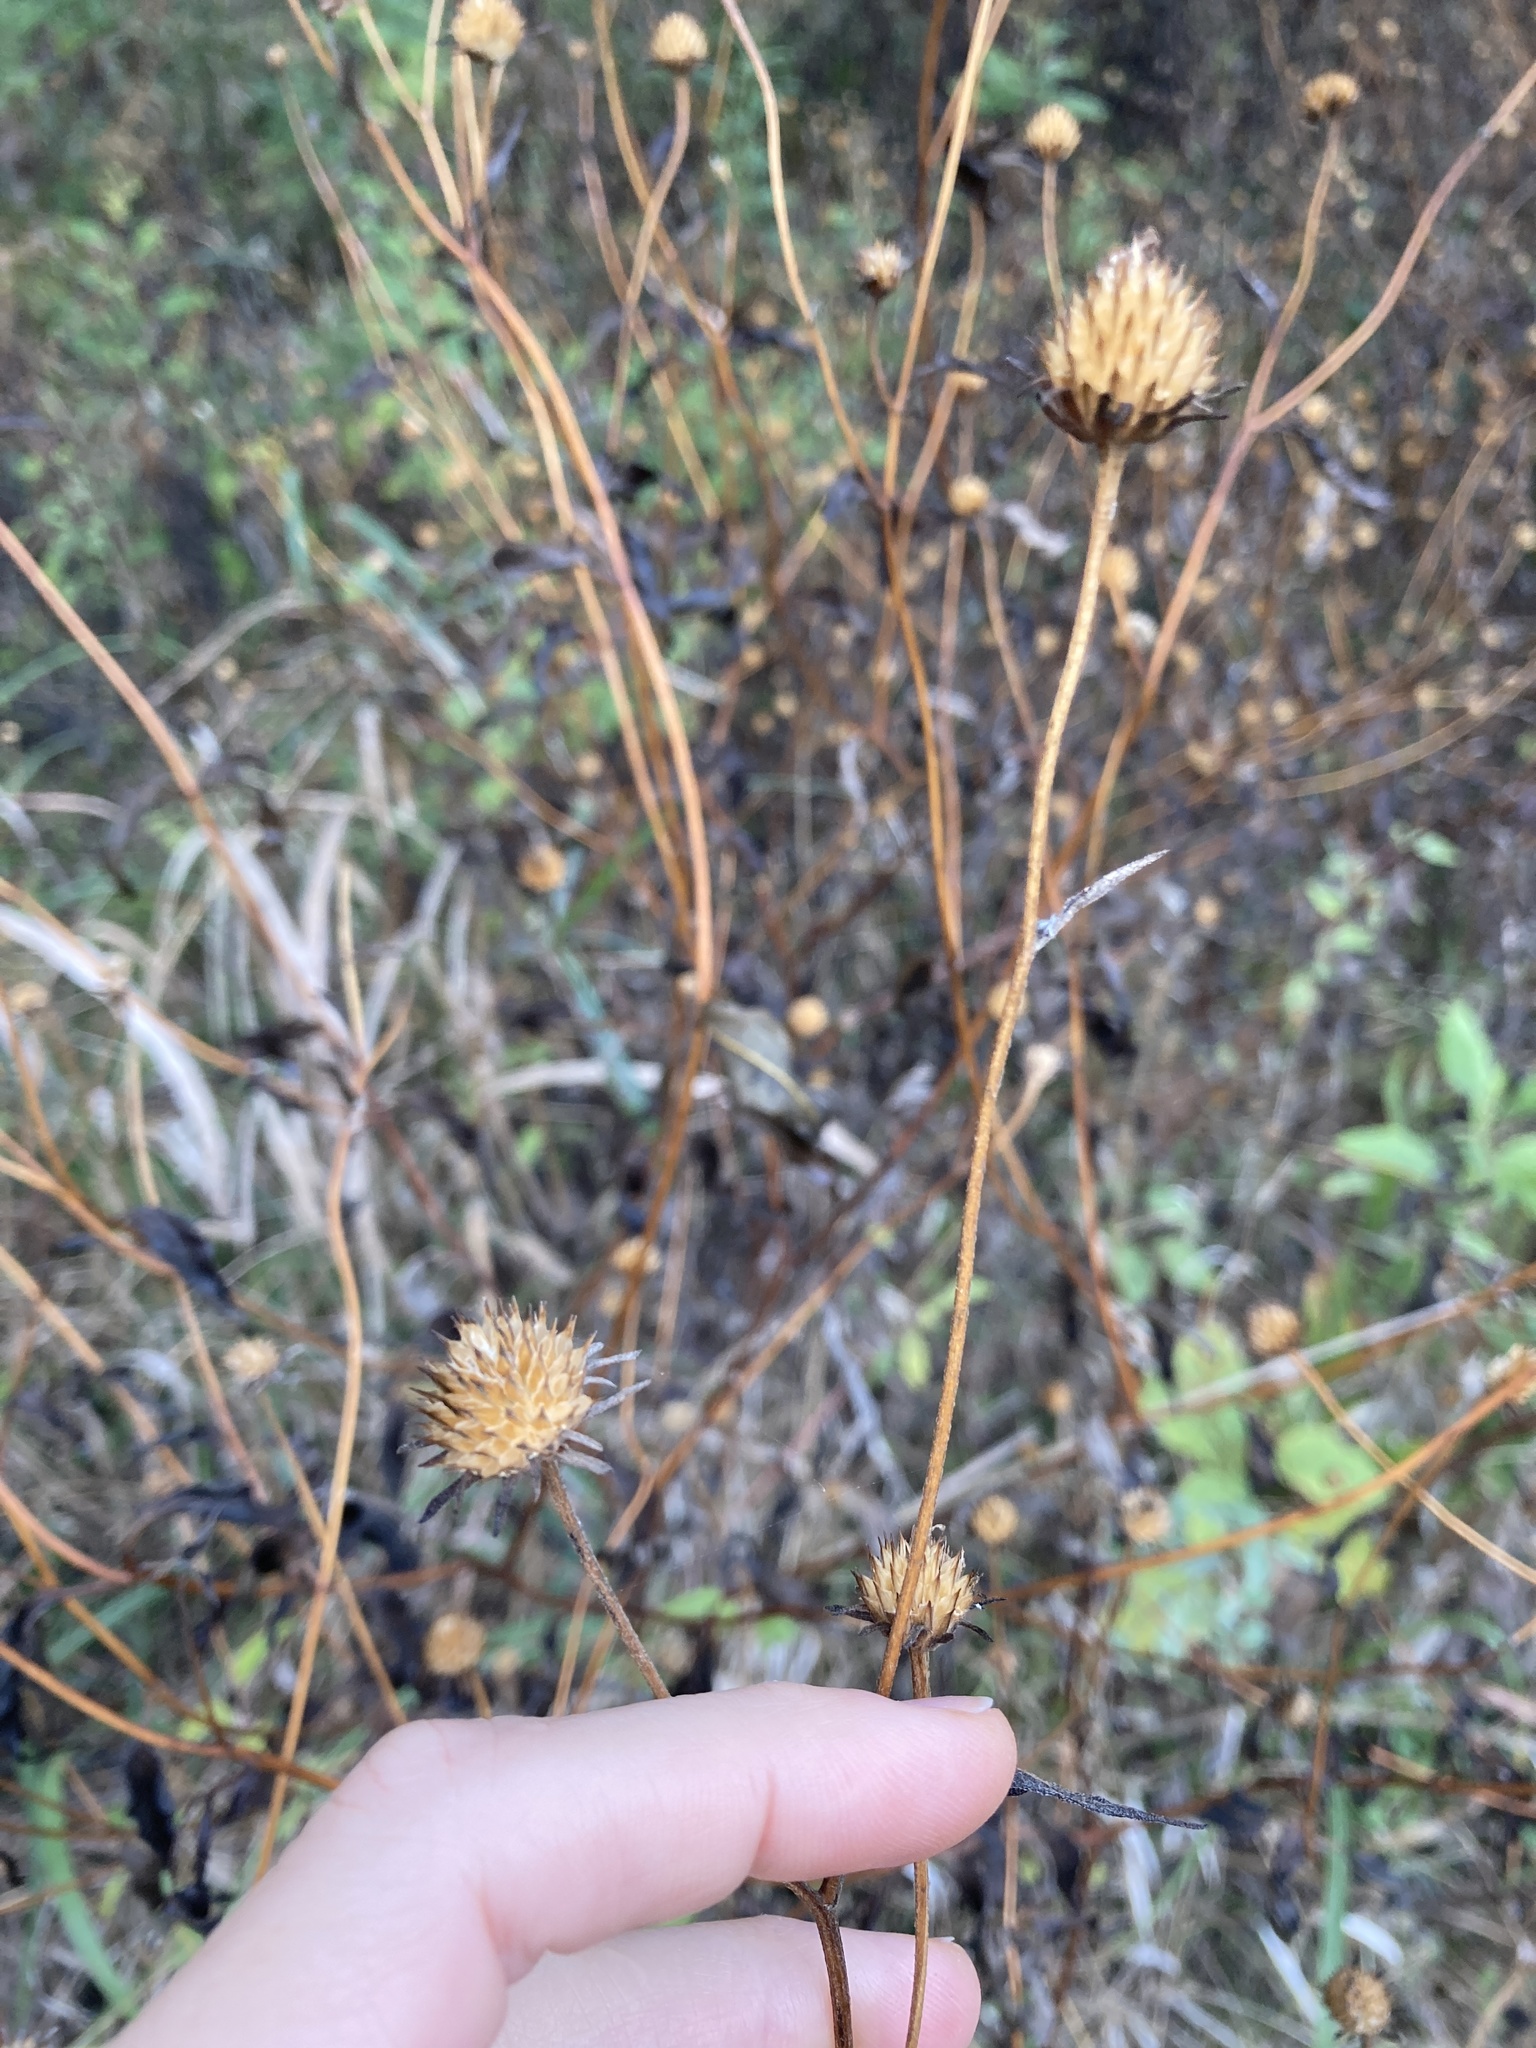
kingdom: Plantae
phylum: Tracheophyta
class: Magnoliopsida
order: Asterales
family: Asteraceae
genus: Viguiera
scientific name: Viguiera dentata
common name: Toothleaf
